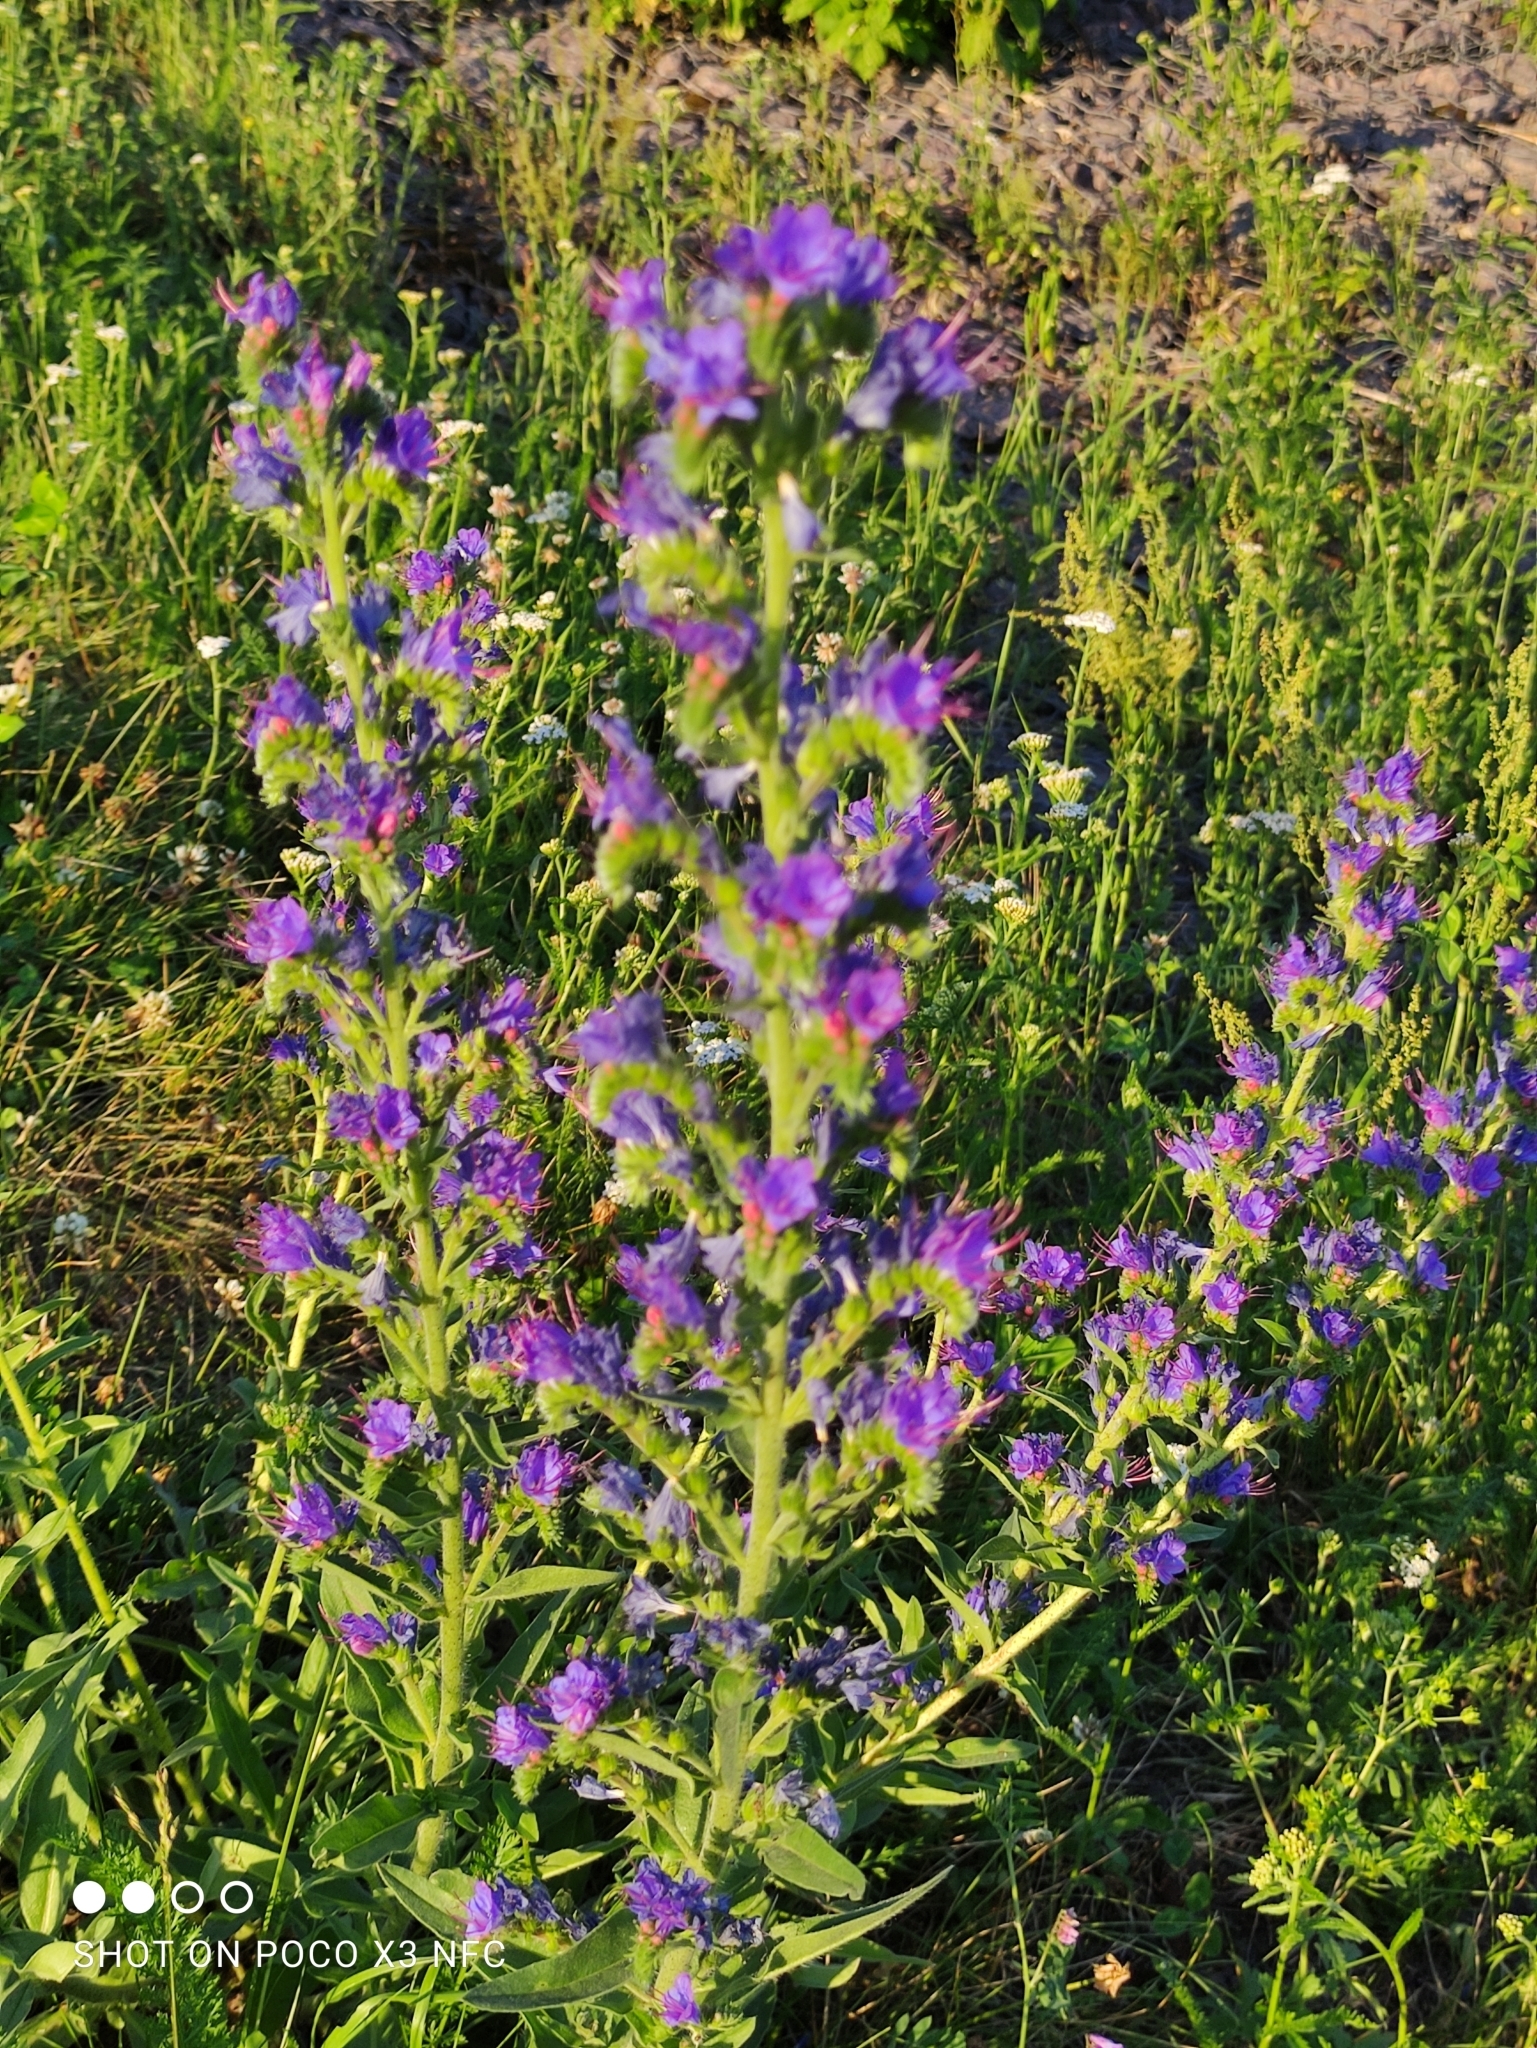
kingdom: Plantae
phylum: Tracheophyta
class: Magnoliopsida
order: Boraginales
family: Boraginaceae
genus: Echium
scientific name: Echium vulgare
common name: Common viper's bugloss
